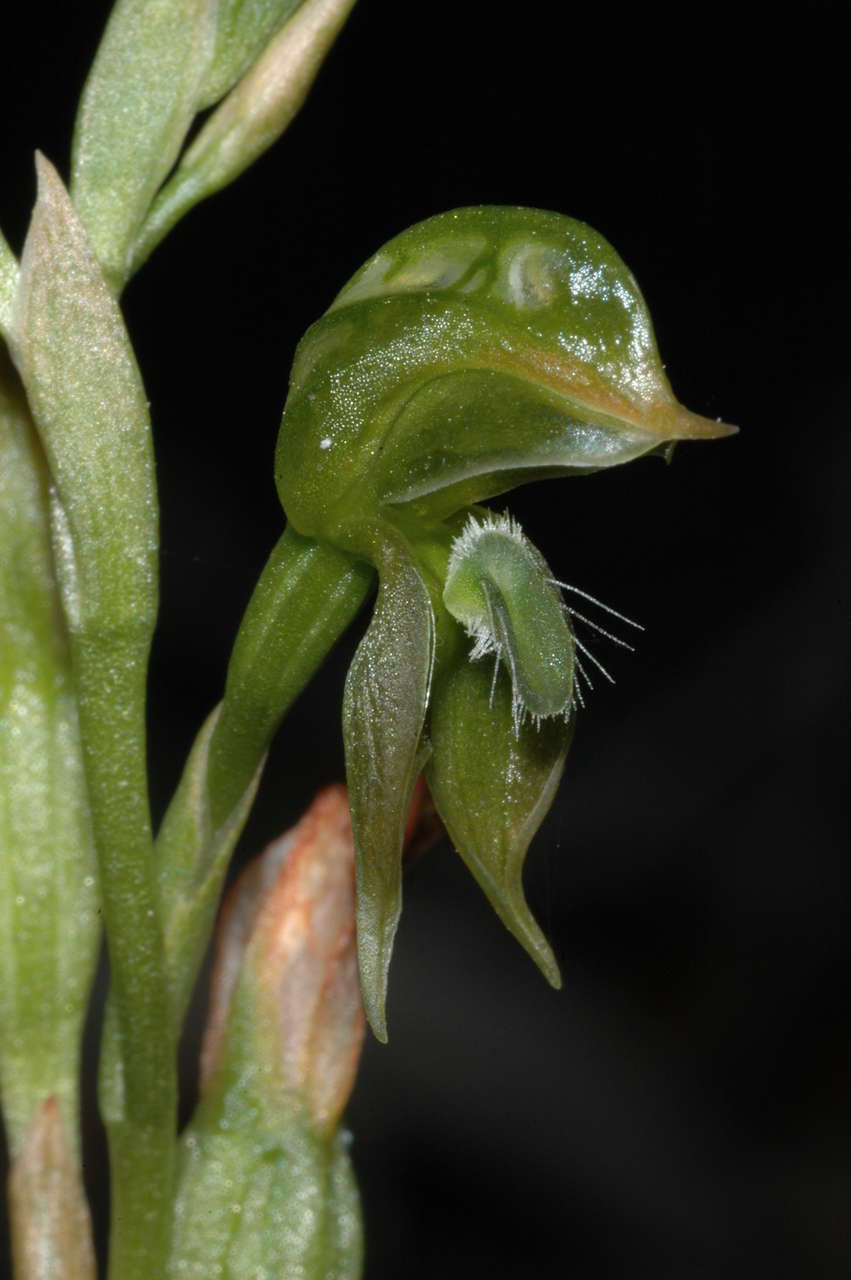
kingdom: Plantae
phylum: Tracheophyta
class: Liliopsida
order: Asparagales
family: Orchidaceae
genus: Pterostylis
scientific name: Pterostylis squamata
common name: Ruddy greenhood
